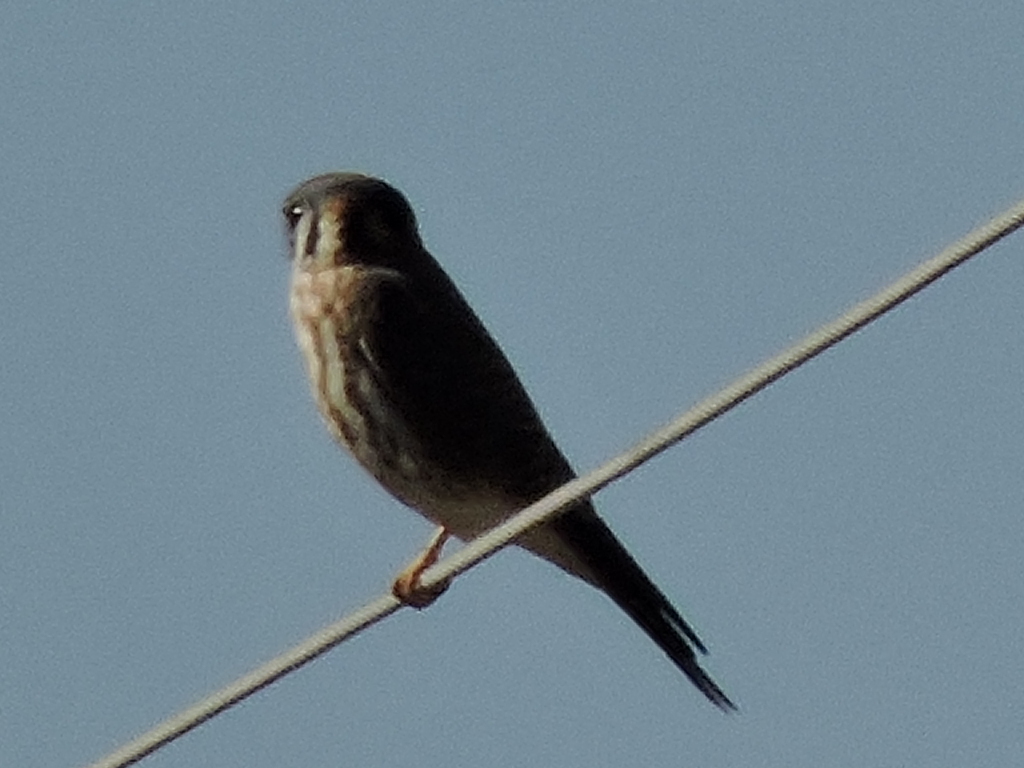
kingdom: Animalia
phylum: Chordata
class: Aves
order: Falconiformes
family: Falconidae
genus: Falco
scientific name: Falco sparverius
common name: American kestrel
